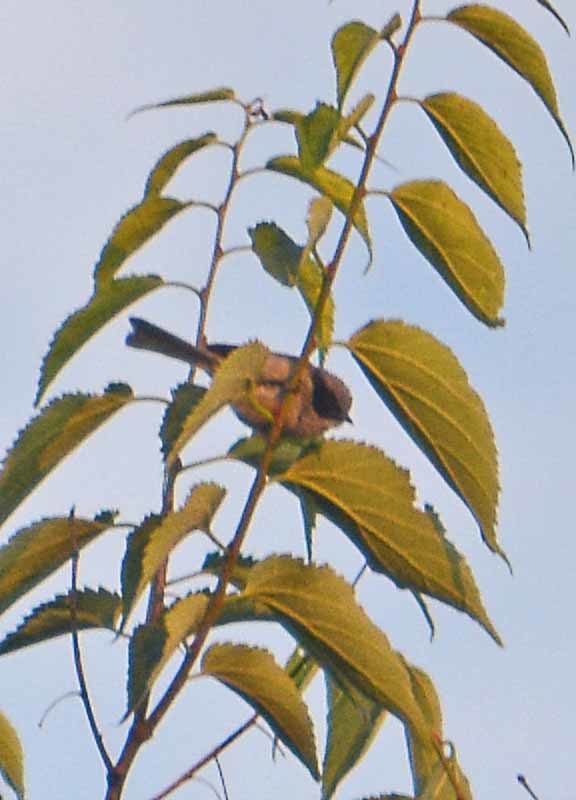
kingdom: Animalia
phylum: Chordata
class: Aves
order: Passeriformes
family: Aegithalidae
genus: Psaltriparus
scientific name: Psaltriparus minimus
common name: American bushtit
